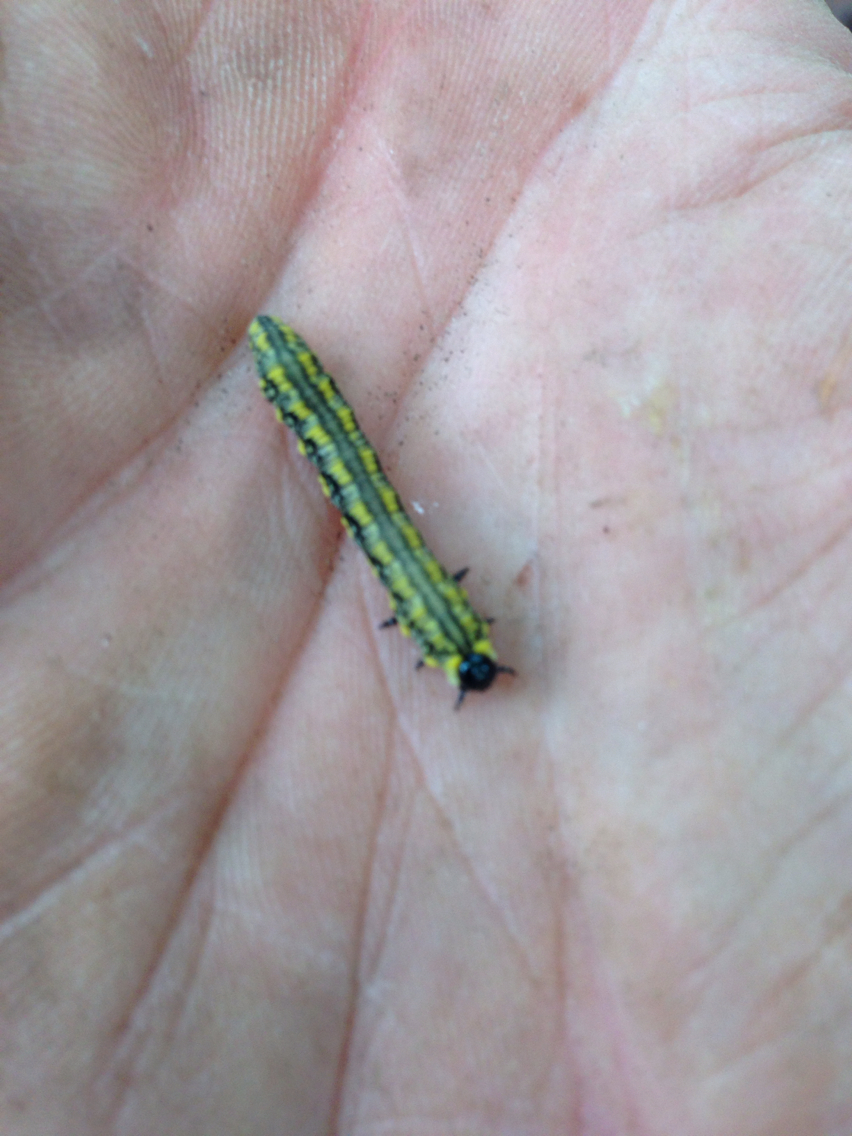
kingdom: Animalia
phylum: Arthropoda
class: Insecta
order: Hymenoptera
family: Diprionidae
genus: Diprion
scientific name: Diprion similis
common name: Pine sawfly
